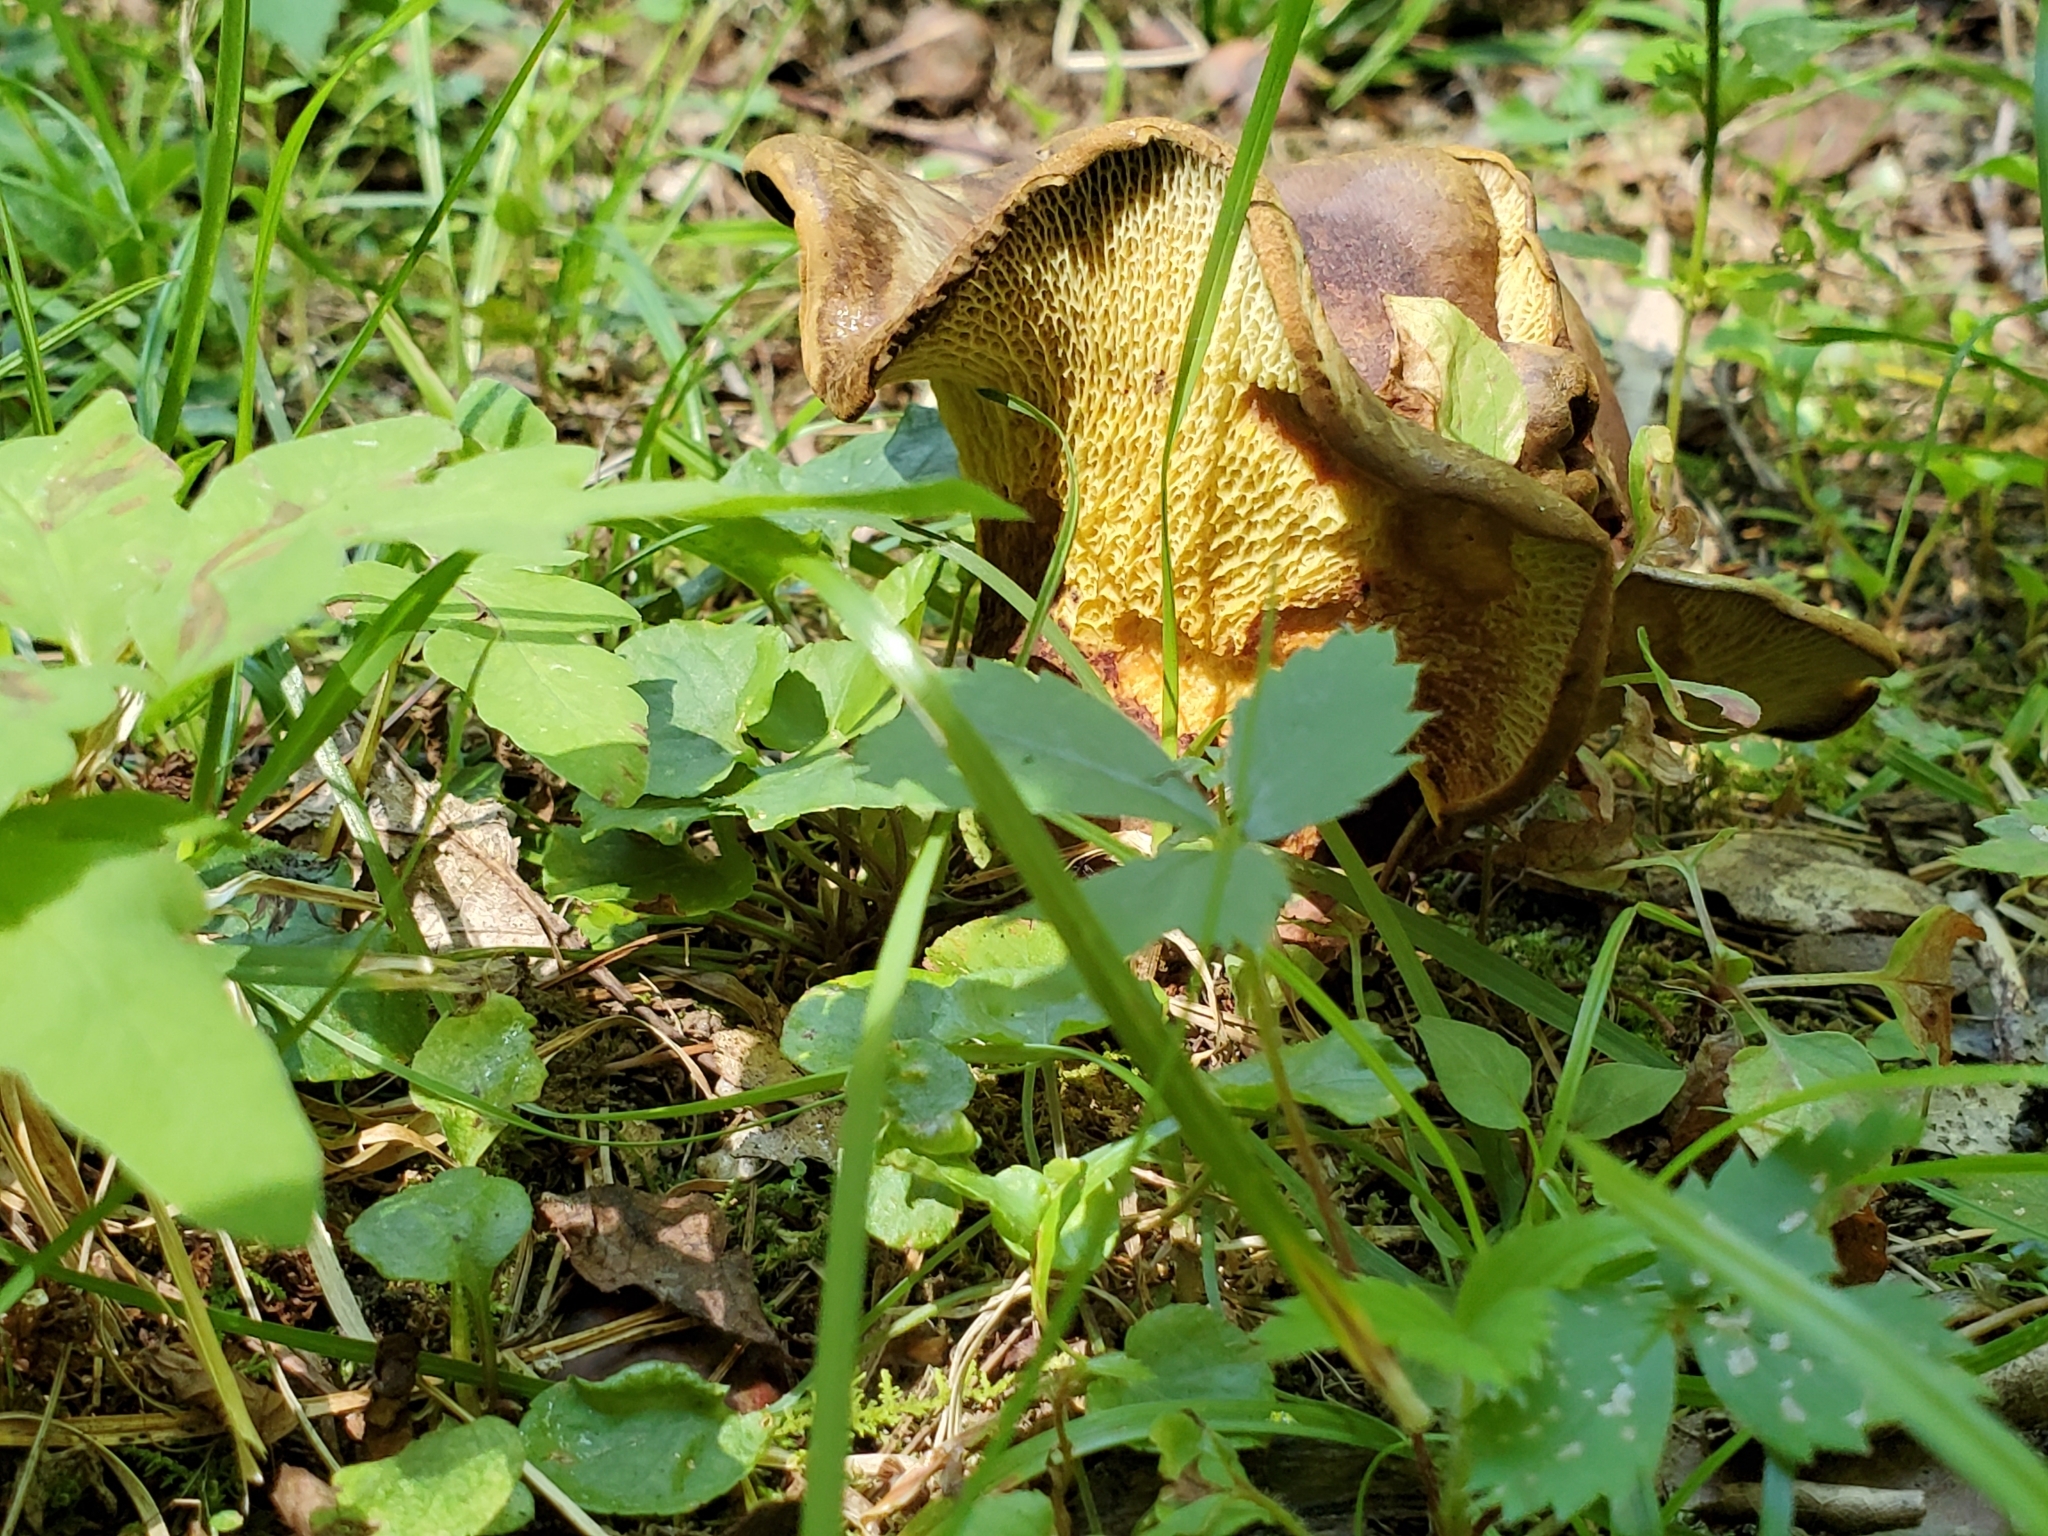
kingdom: Fungi
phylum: Basidiomycota
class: Agaricomycetes
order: Boletales
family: Boletinellaceae
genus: Boletinellus
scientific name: Boletinellus merulioides
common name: Ash tree bolete
